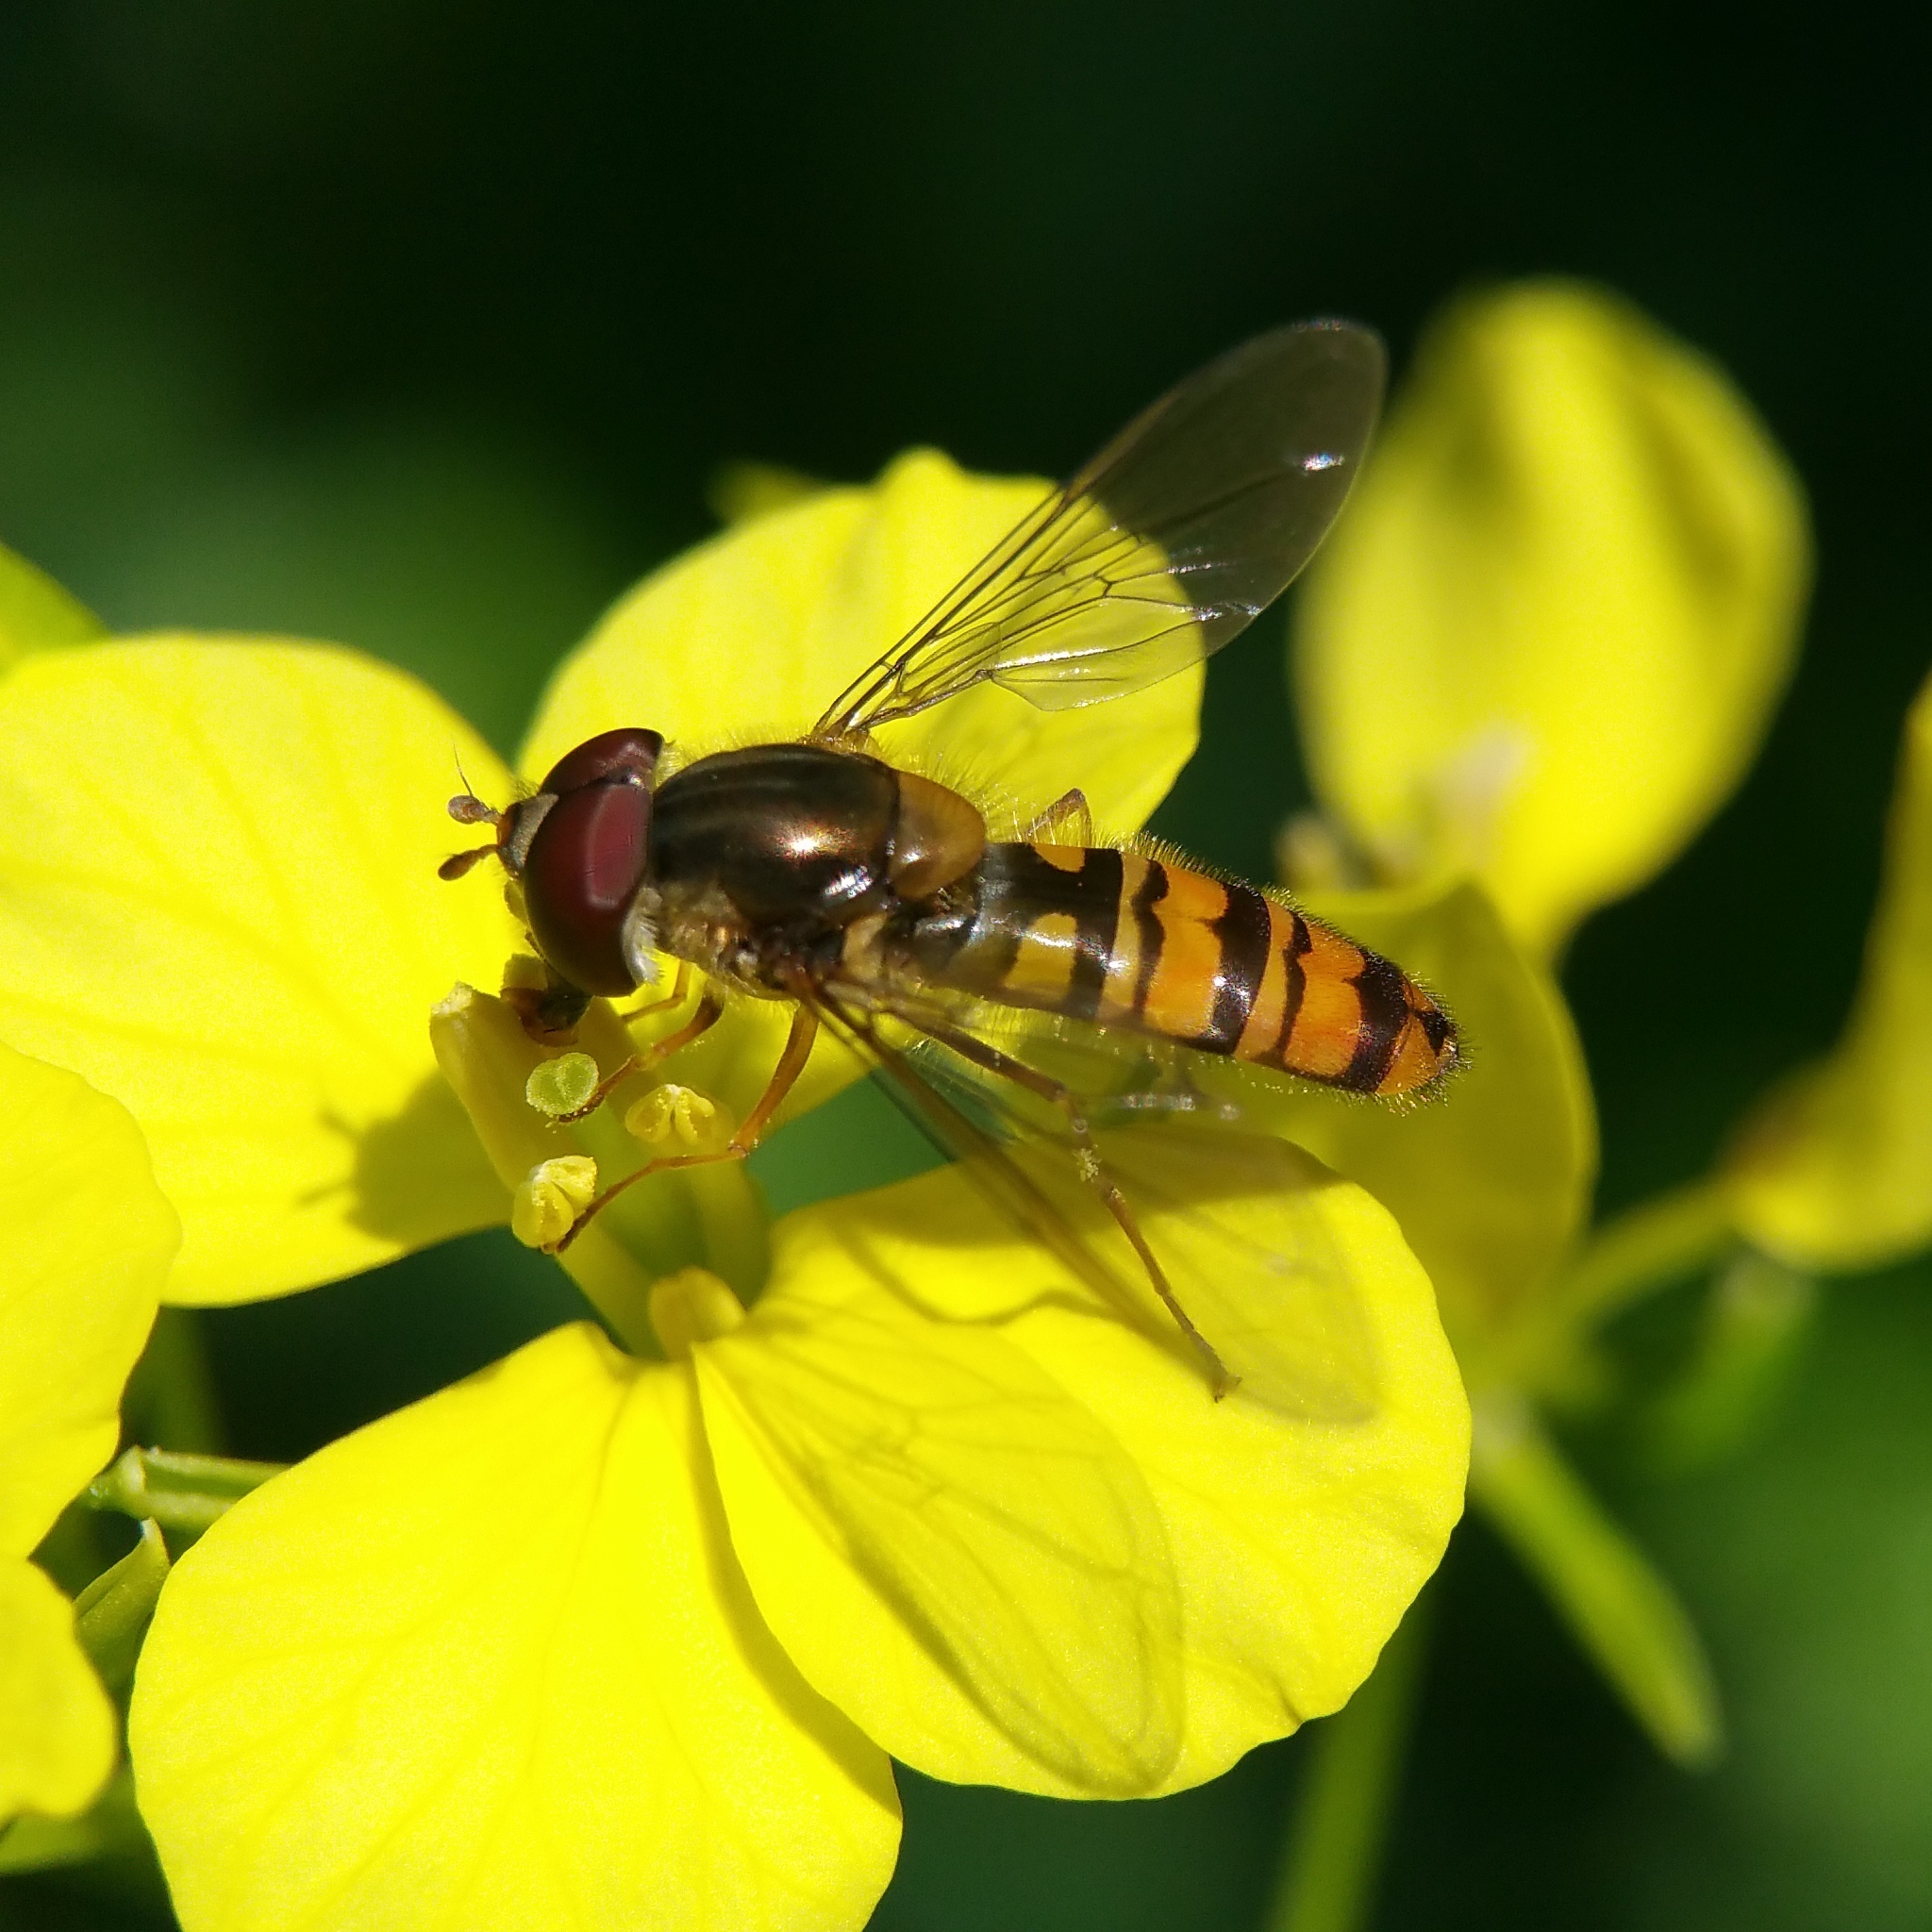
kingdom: Animalia
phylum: Arthropoda
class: Insecta
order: Diptera
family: Syrphidae
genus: Episyrphus
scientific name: Episyrphus balteatus
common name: Marmalade hoverfly
